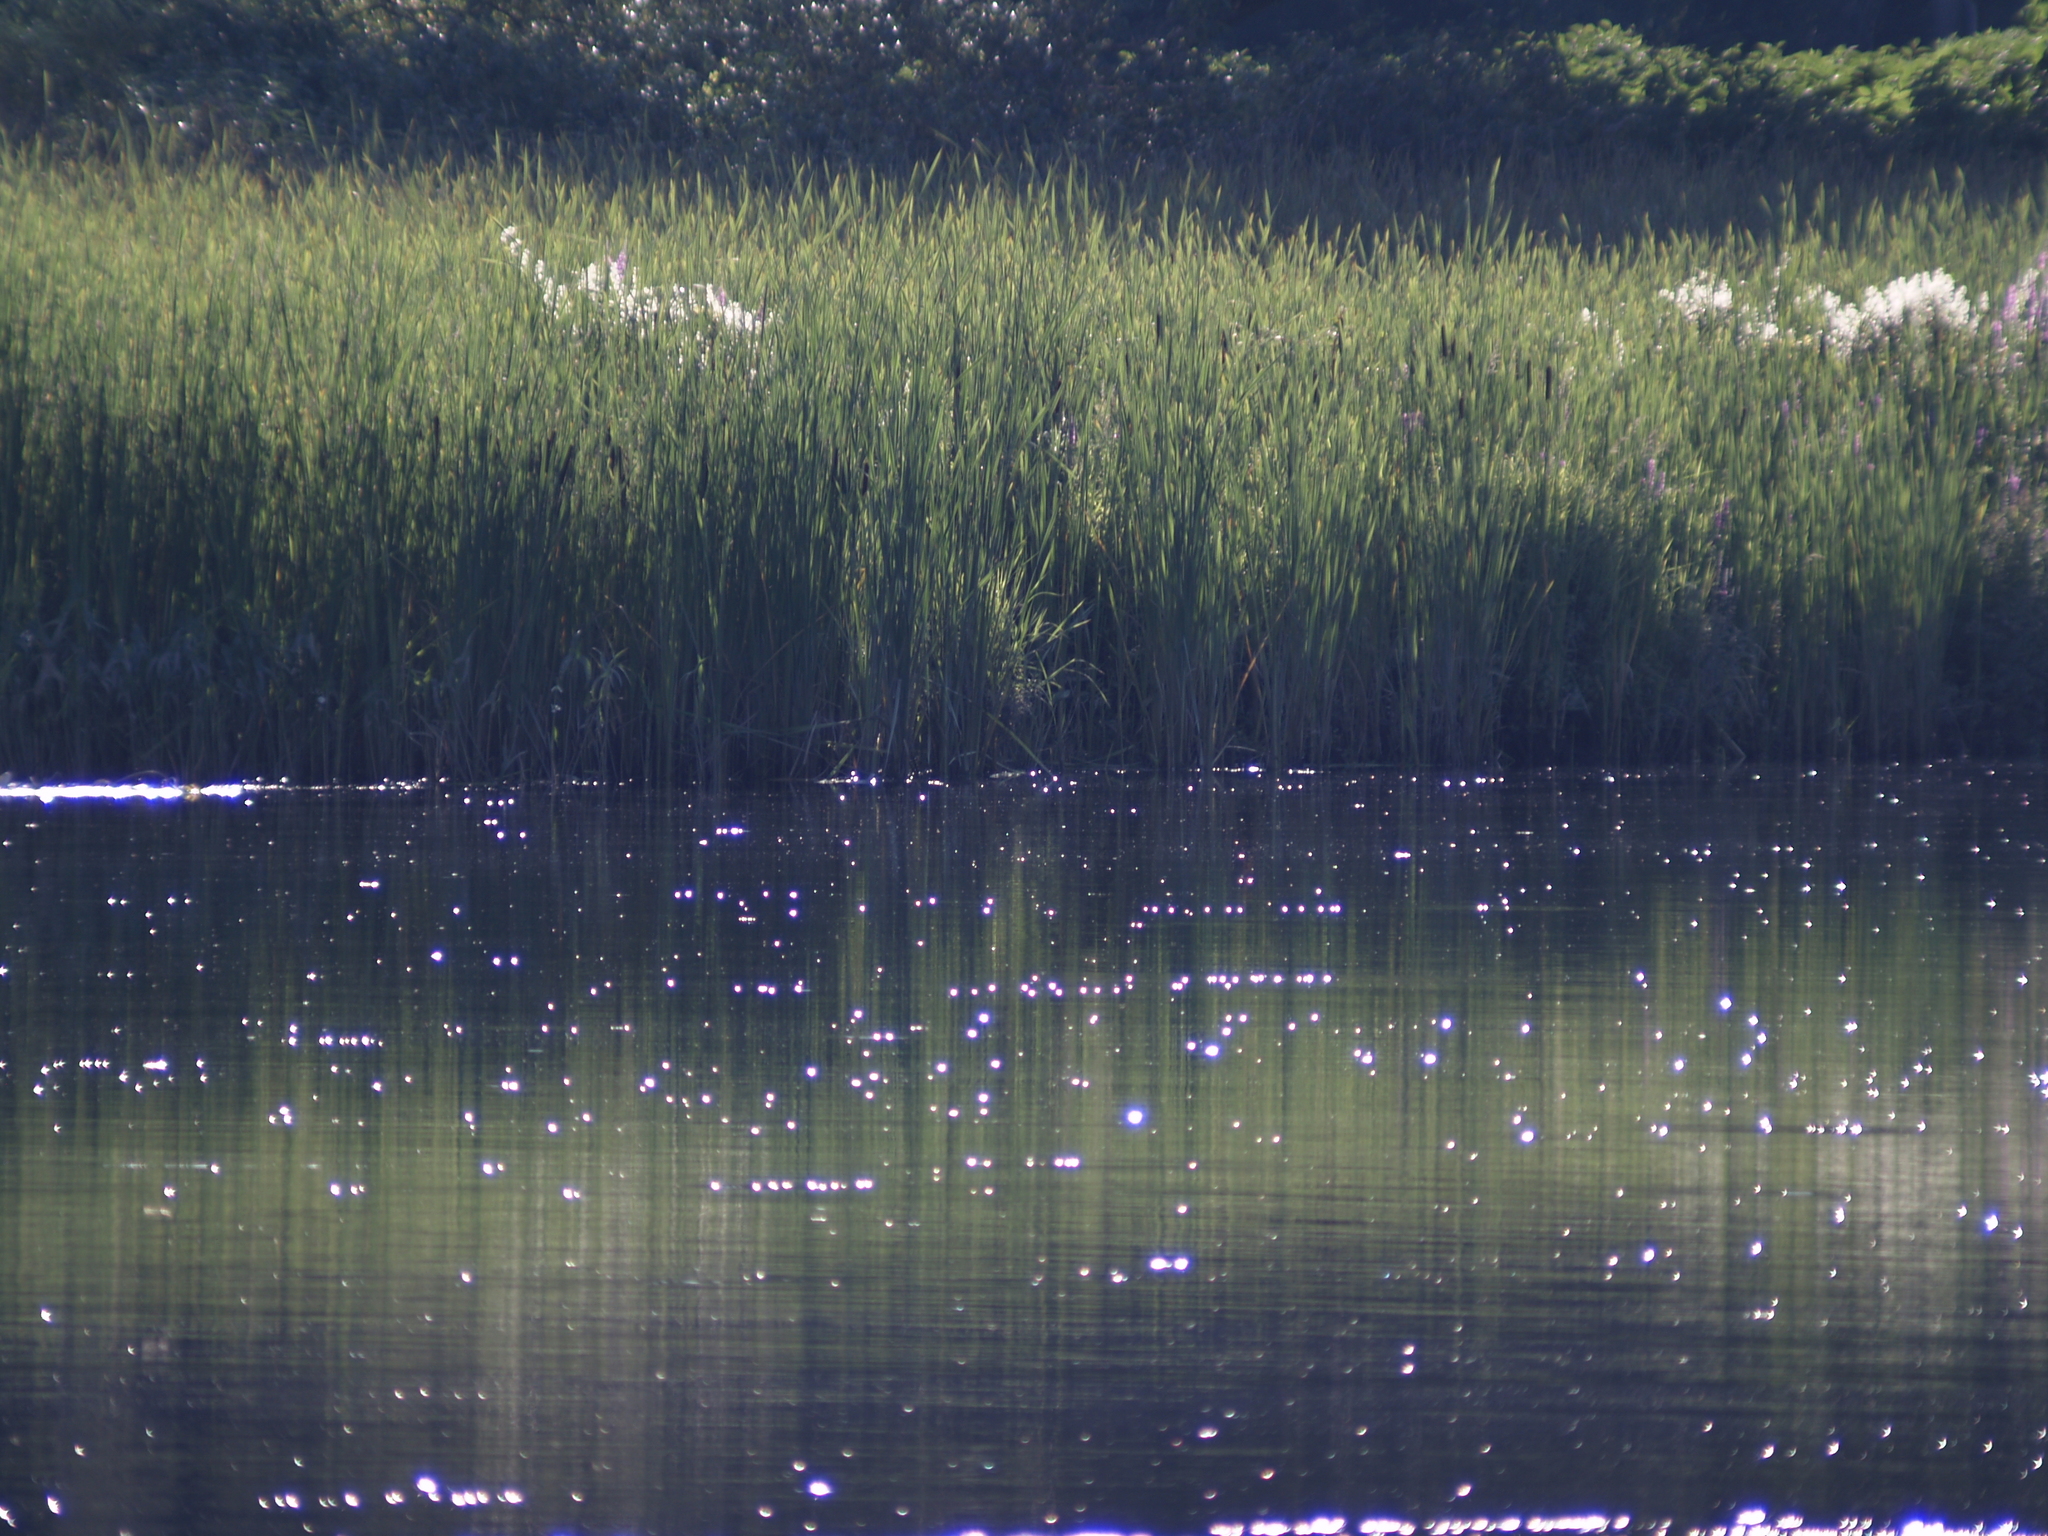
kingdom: Plantae
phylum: Tracheophyta
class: Liliopsida
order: Poales
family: Typhaceae
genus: Typha
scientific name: Typha
